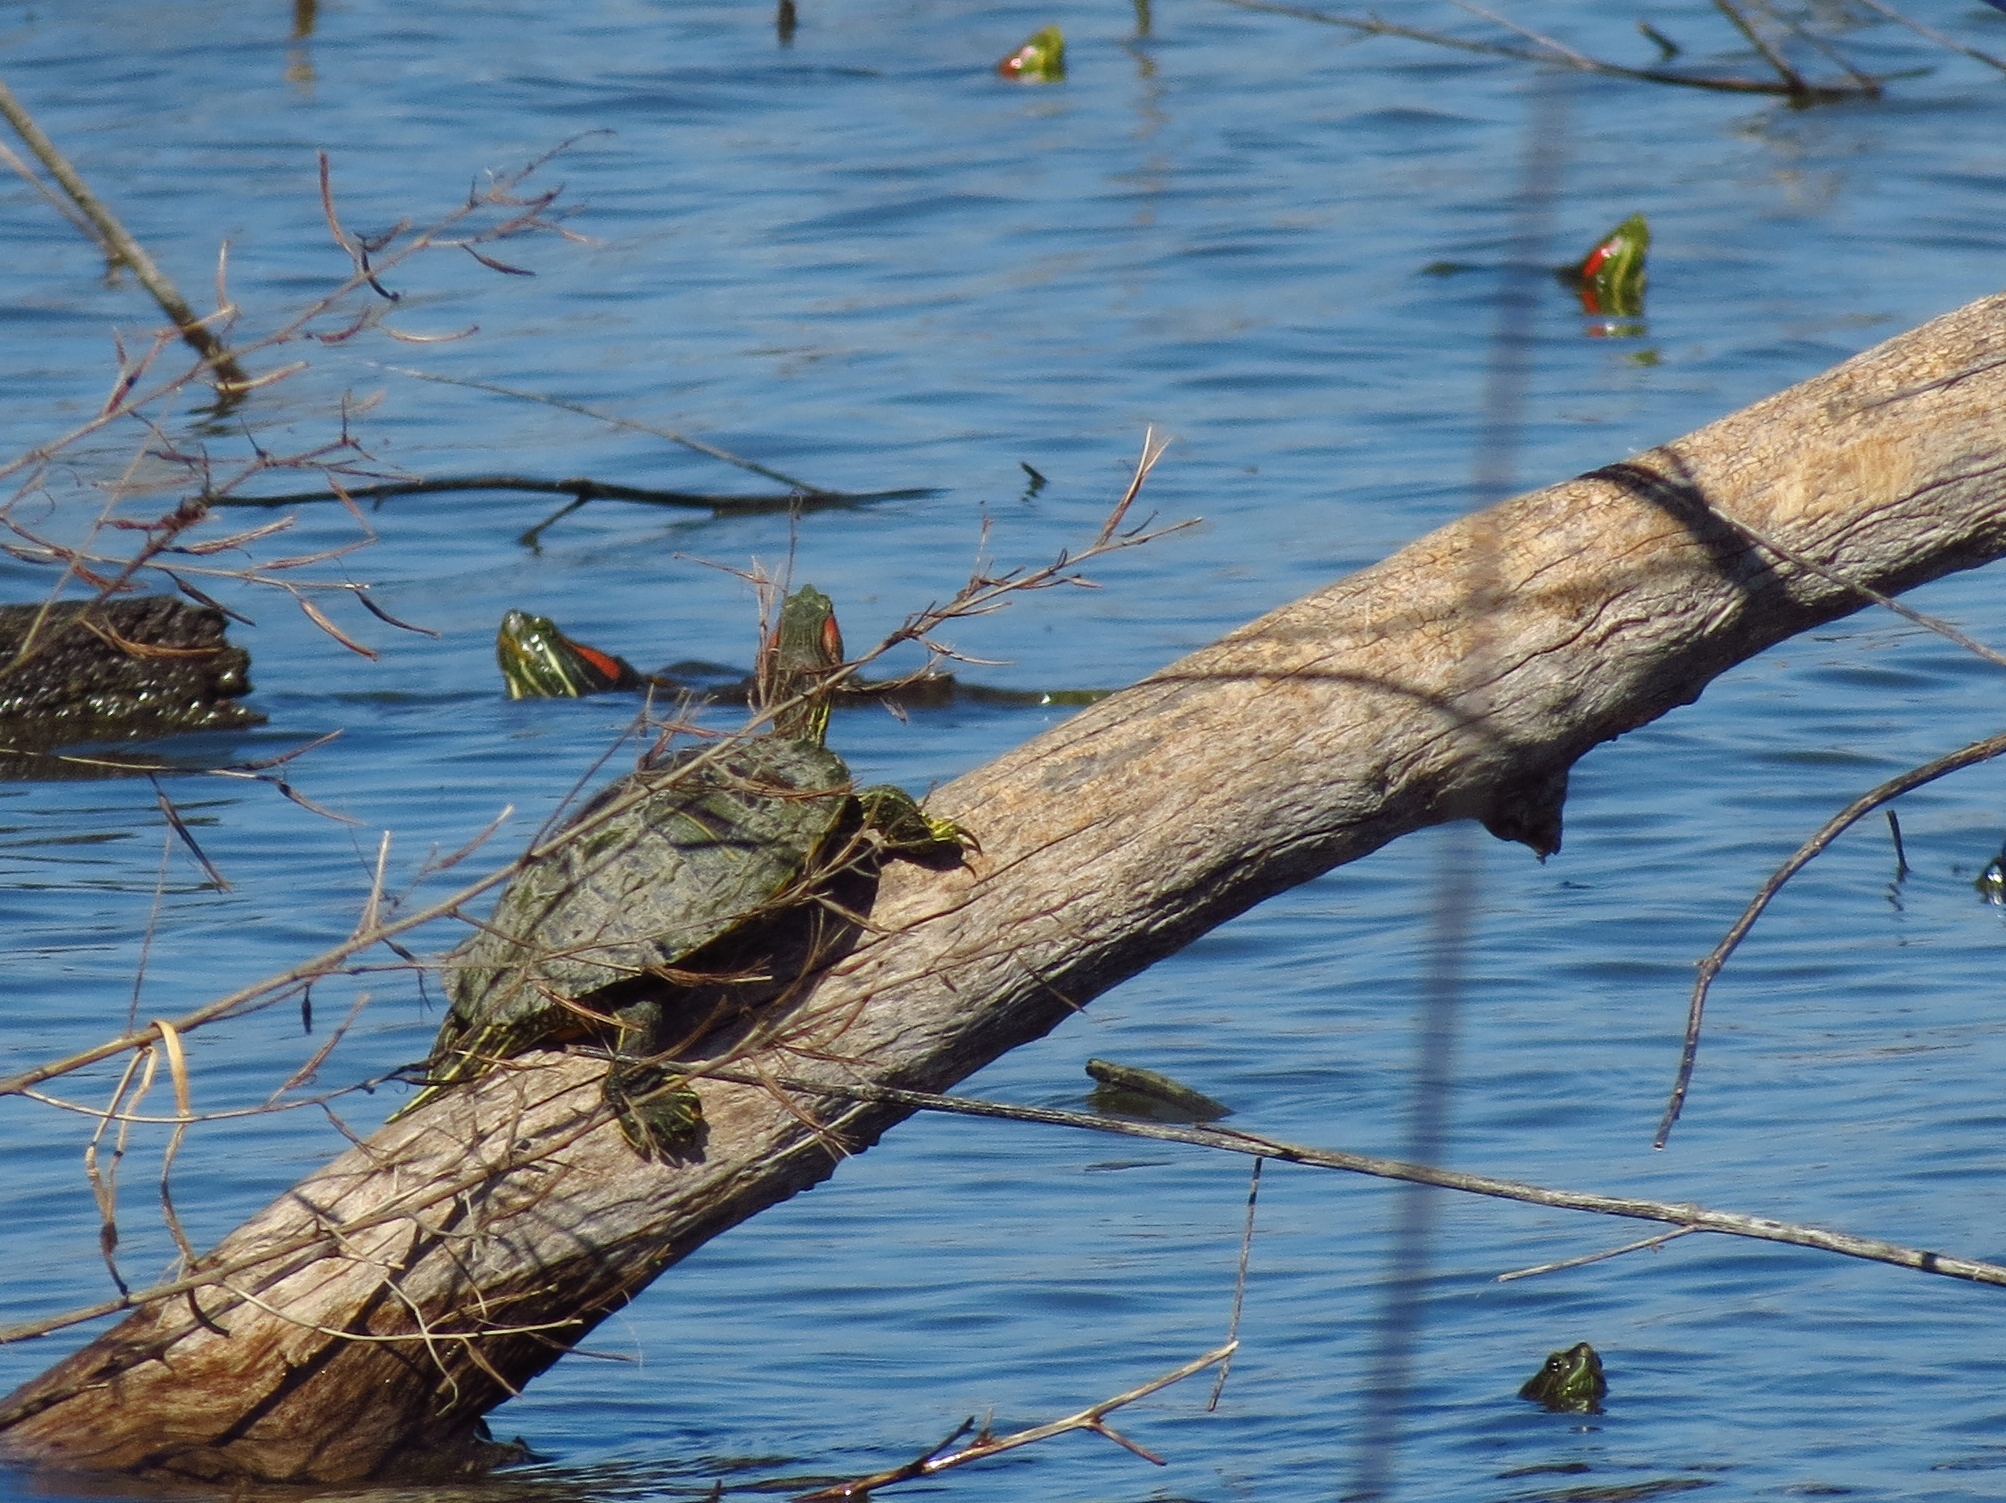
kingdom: Animalia
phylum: Chordata
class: Testudines
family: Emydidae
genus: Trachemys
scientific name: Trachemys scripta
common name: Slider
